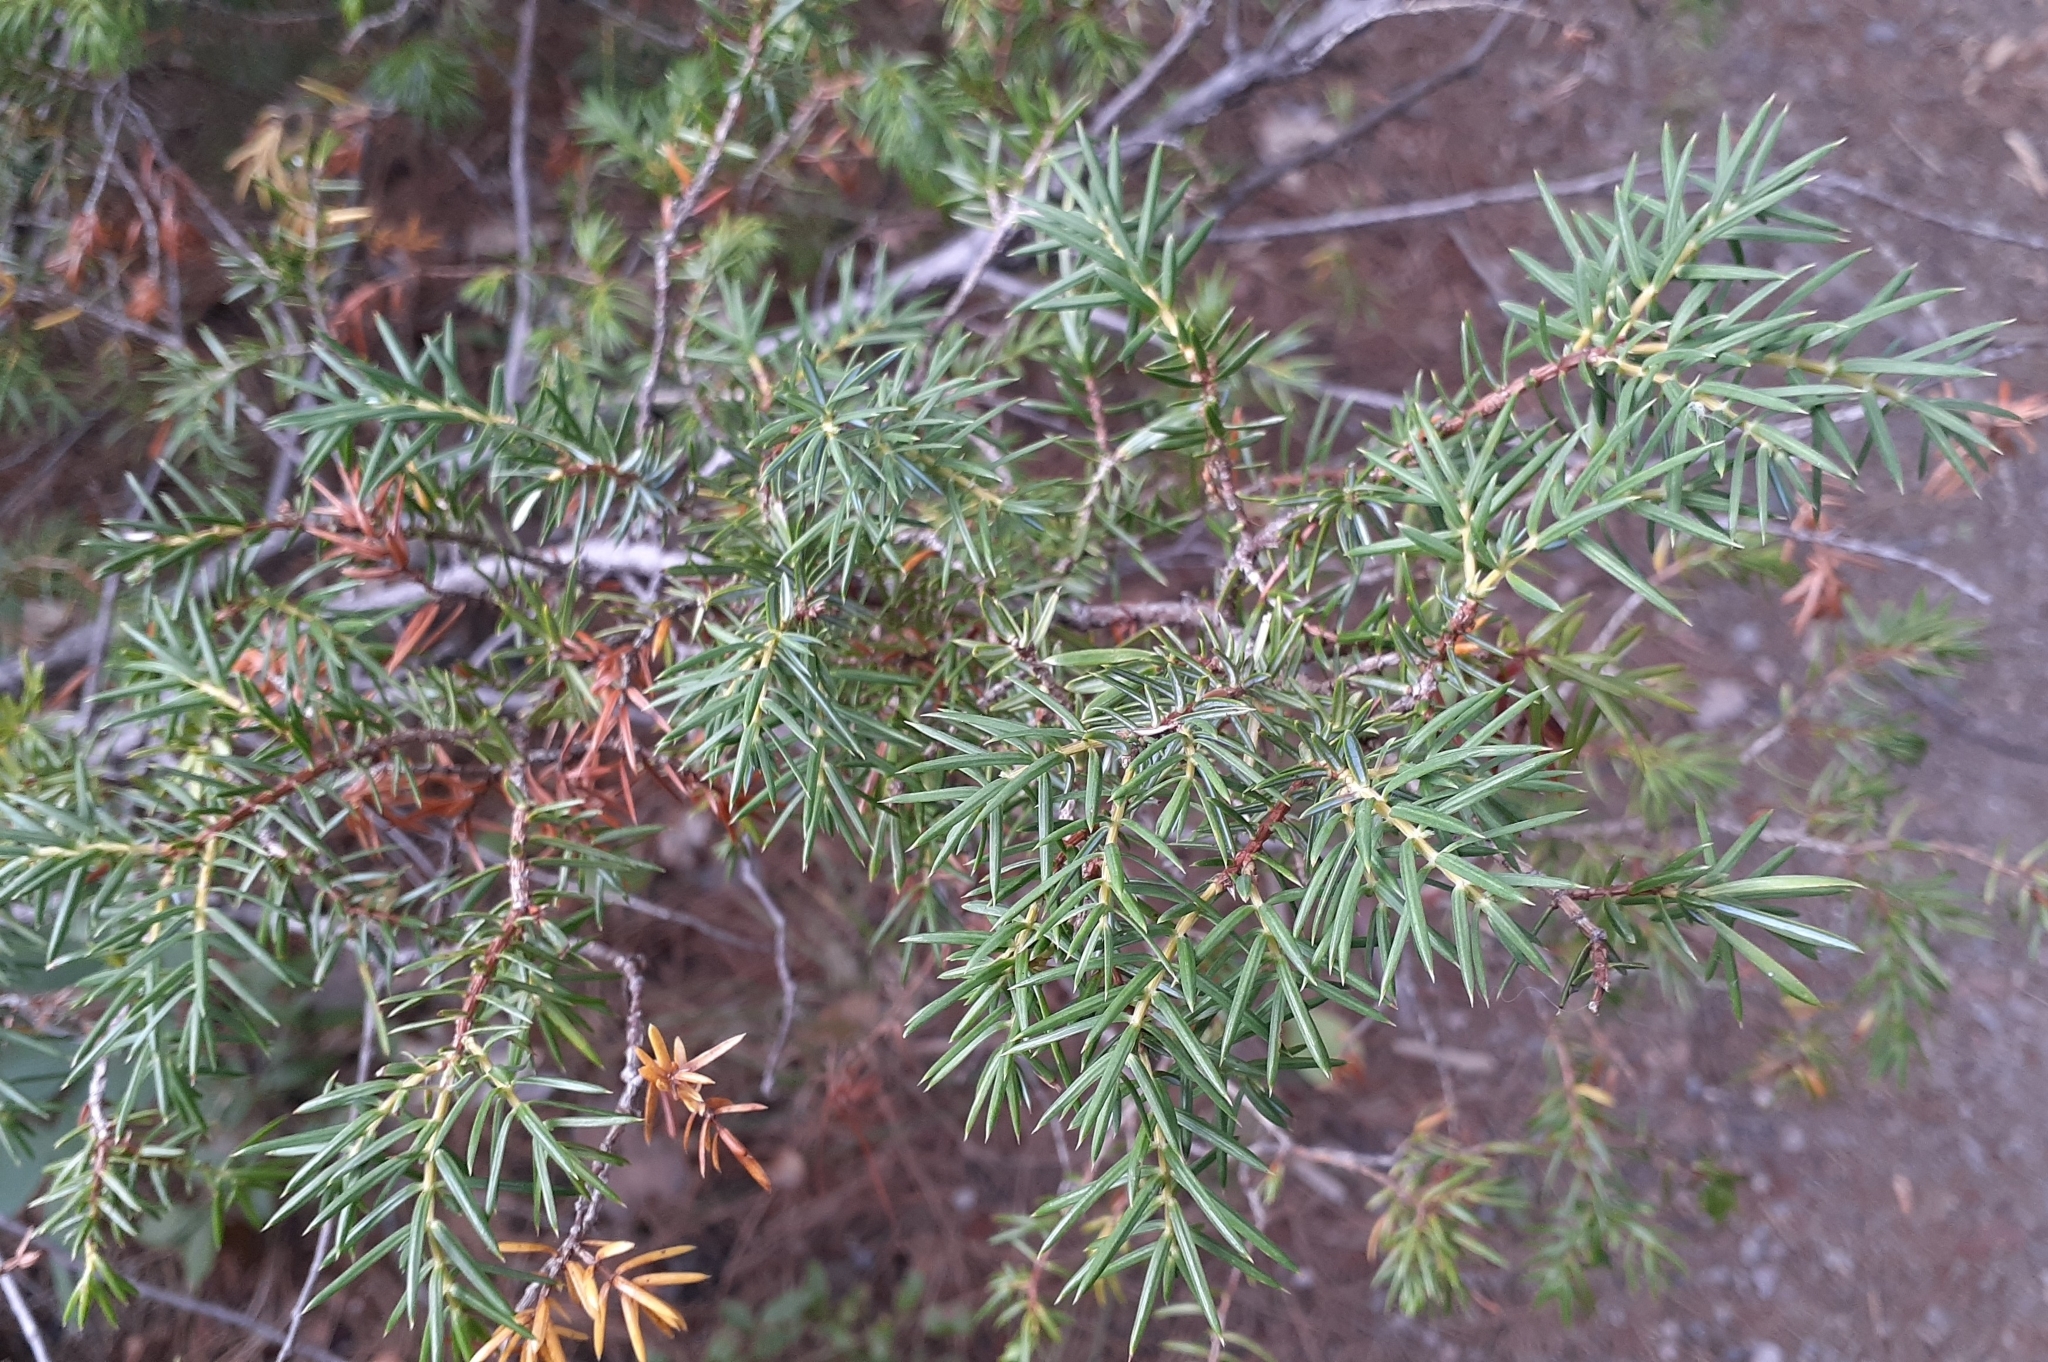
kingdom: Plantae
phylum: Tracheophyta
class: Pinopsida
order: Pinales
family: Cupressaceae
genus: Juniperus
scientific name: Juniperus communis
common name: Common juniper
